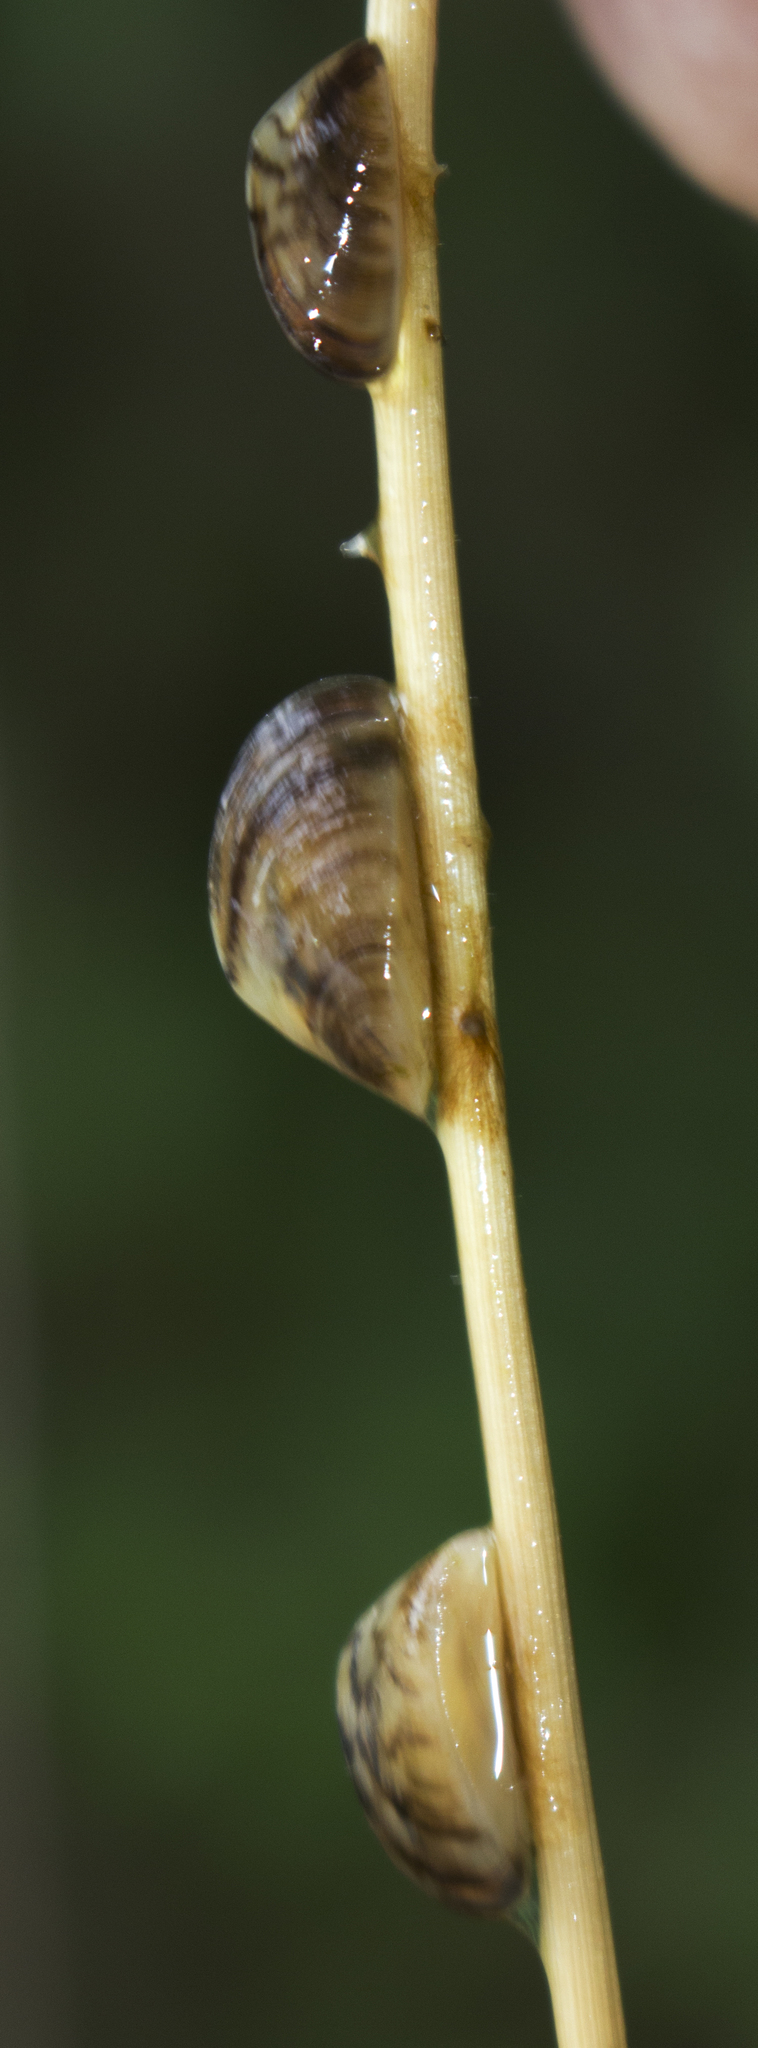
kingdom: Animalia
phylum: Mollusca
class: Bivalvia
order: Myida
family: Dreissenidae
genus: Dreissena
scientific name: Dreissena polymorpha
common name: Zebra mussel
